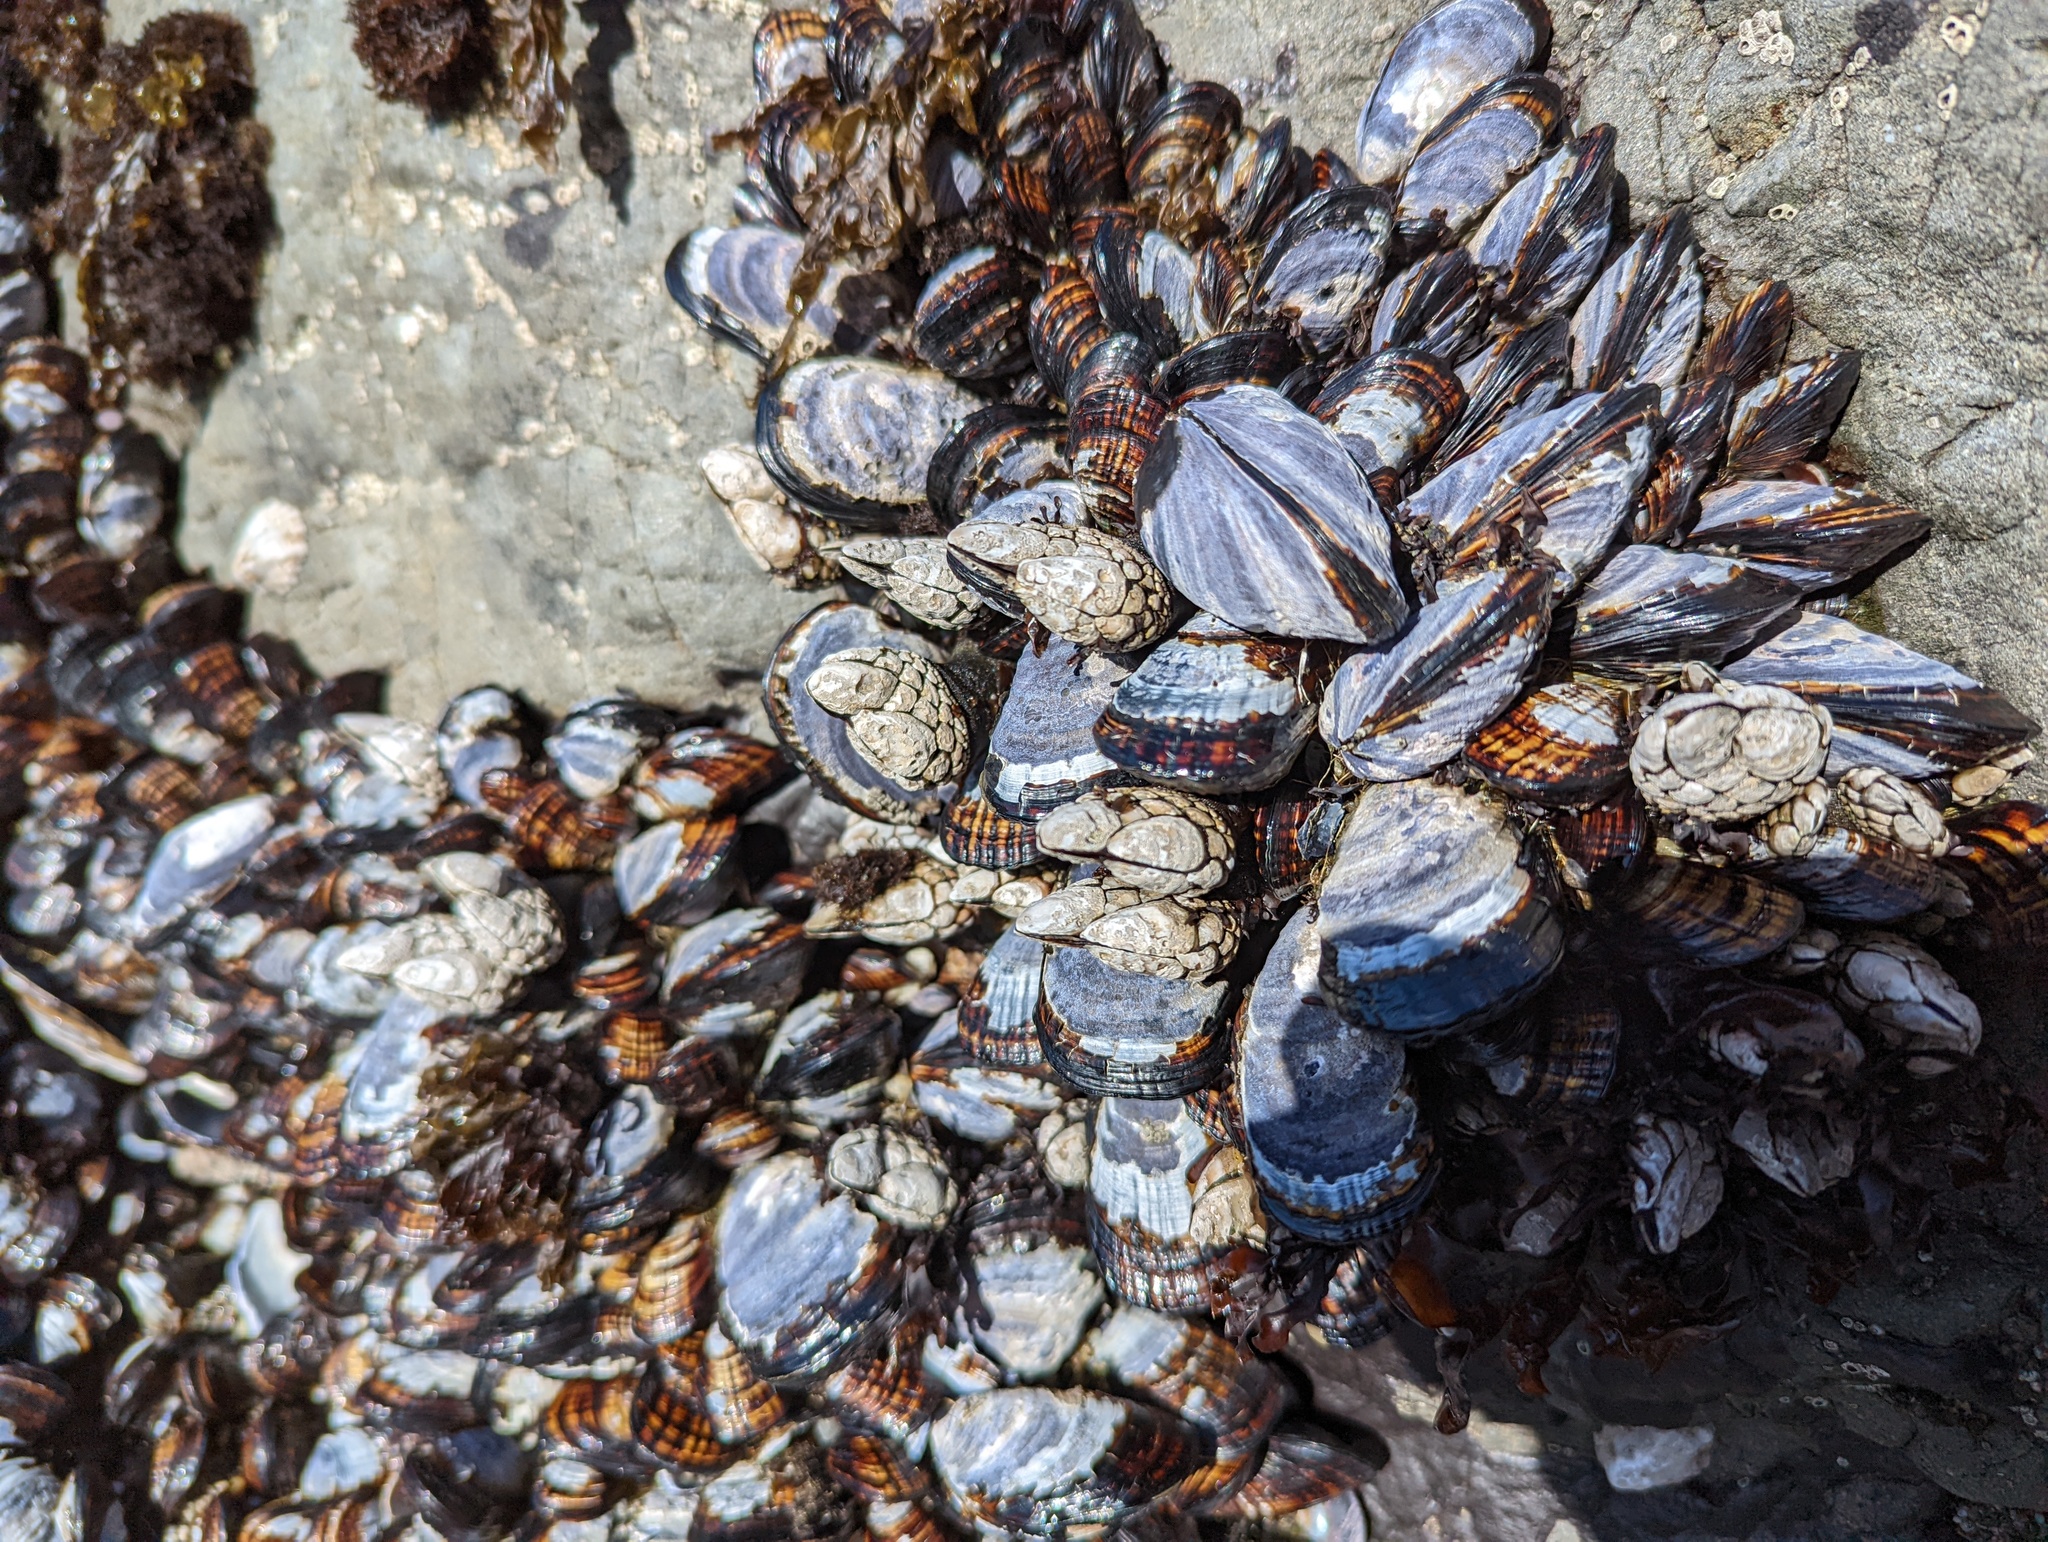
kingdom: Animalia
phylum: Arthropoda
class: Maxillopoda
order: Pedunculata
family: Pollicipedidae
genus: Pollicipes
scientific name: Pollicipes polymerus
